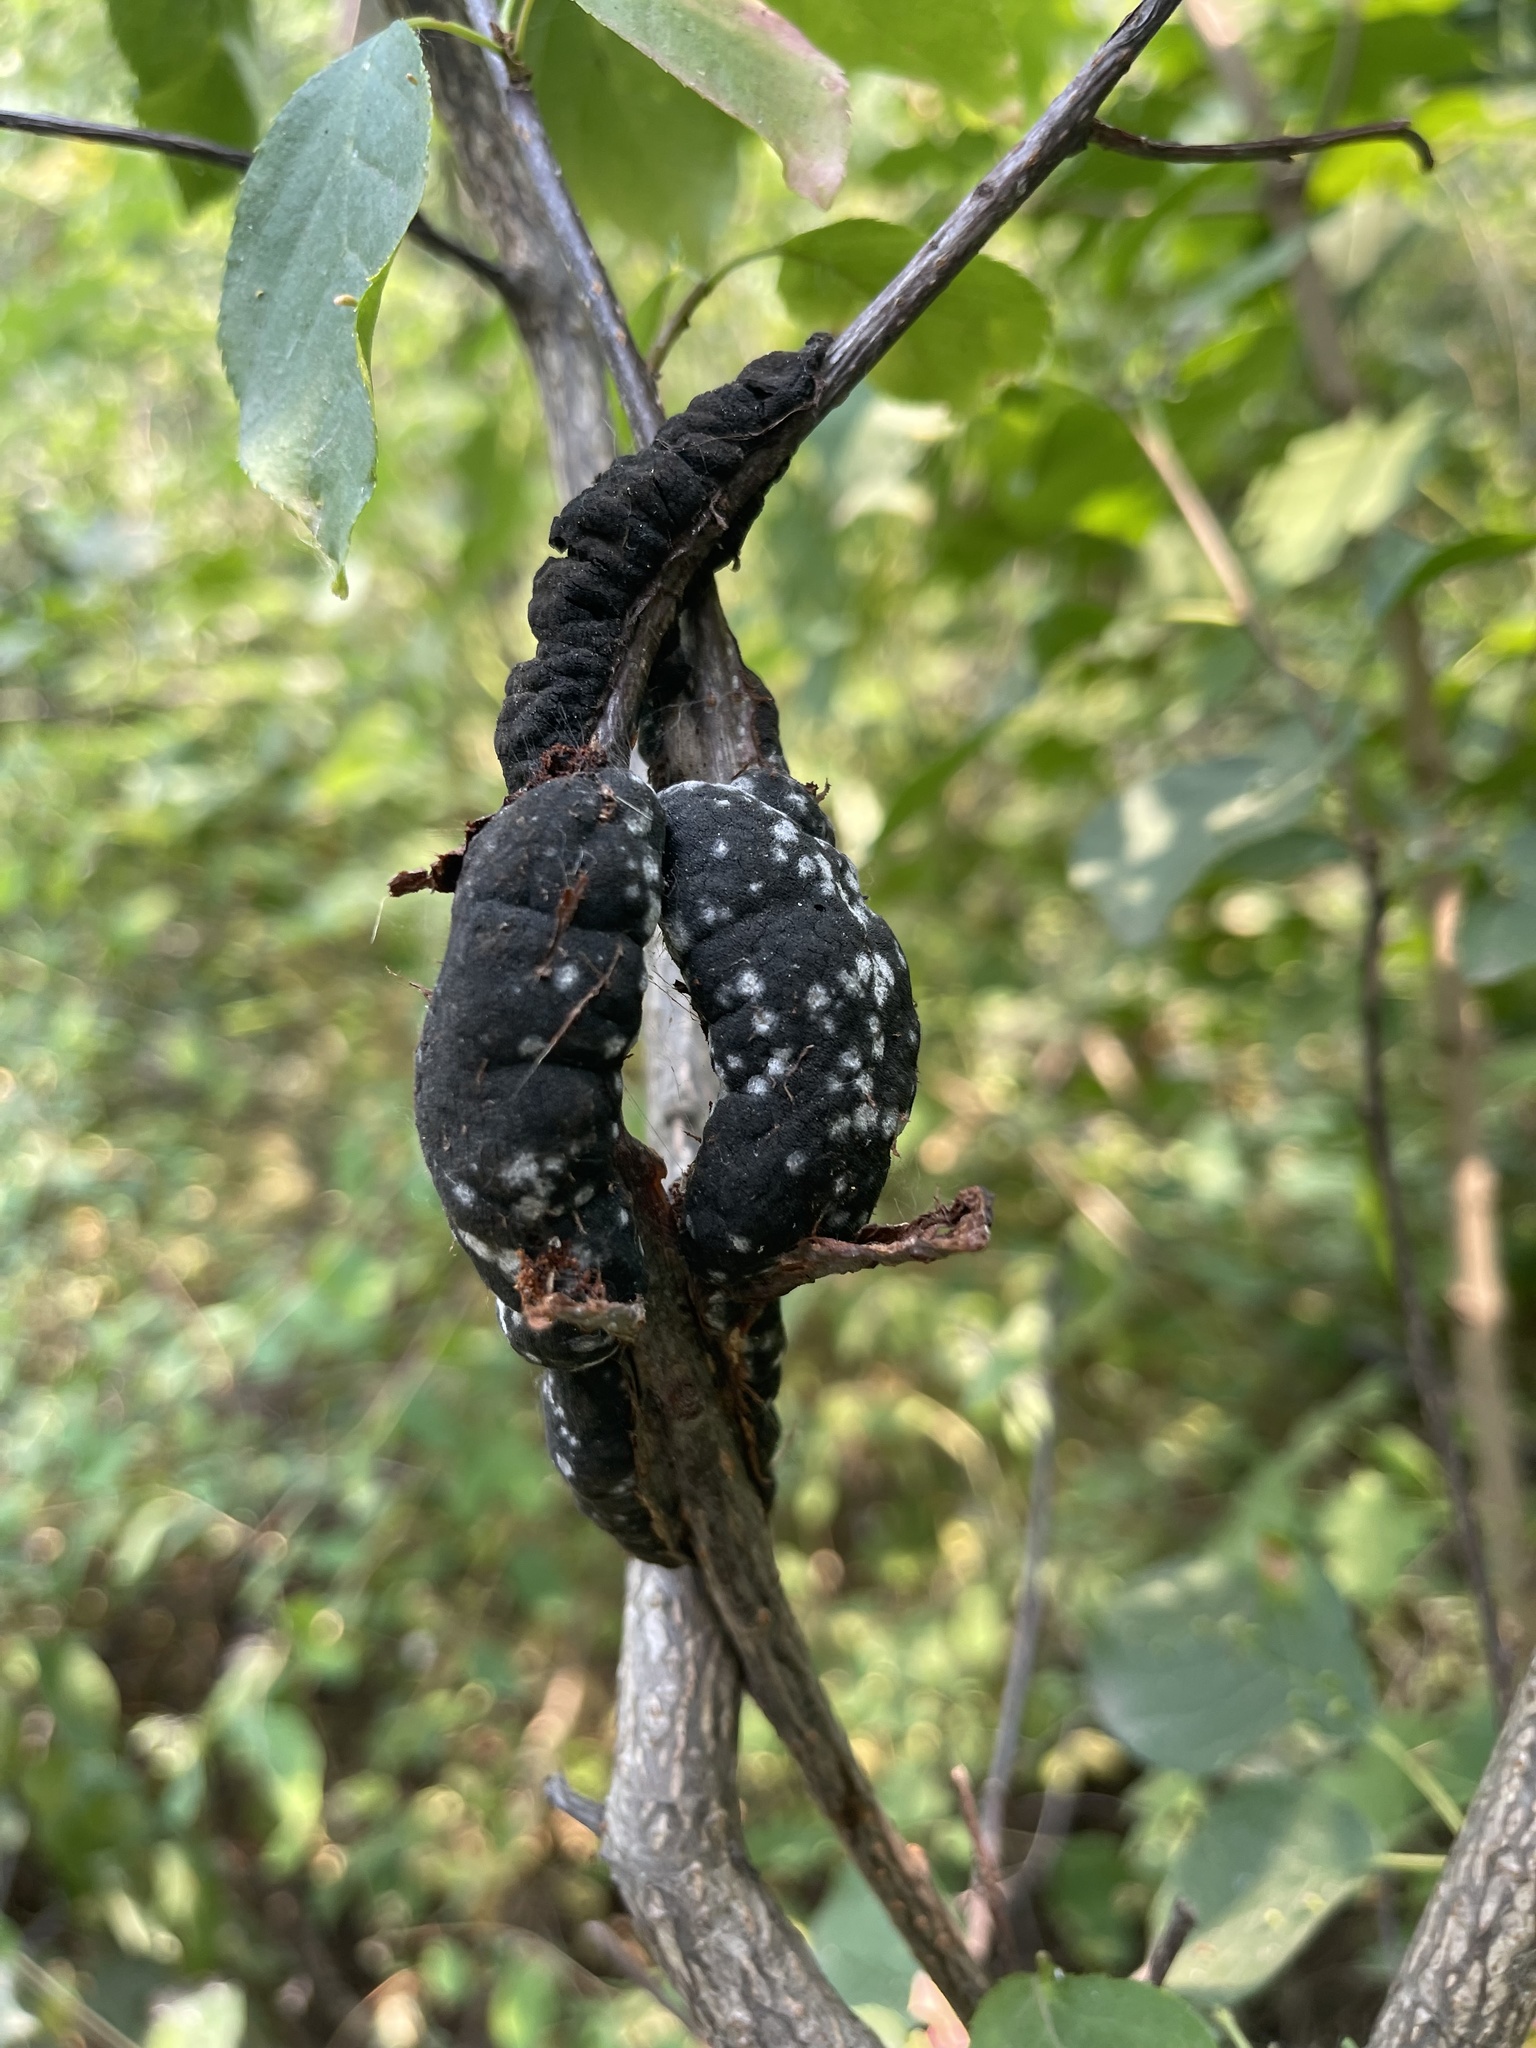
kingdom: Fungi
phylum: Ascomycota
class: Dothideomycetes
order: Venturiales
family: Venturiaceae
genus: Apiosporina
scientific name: Apiosporina morbosa
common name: Black knot
